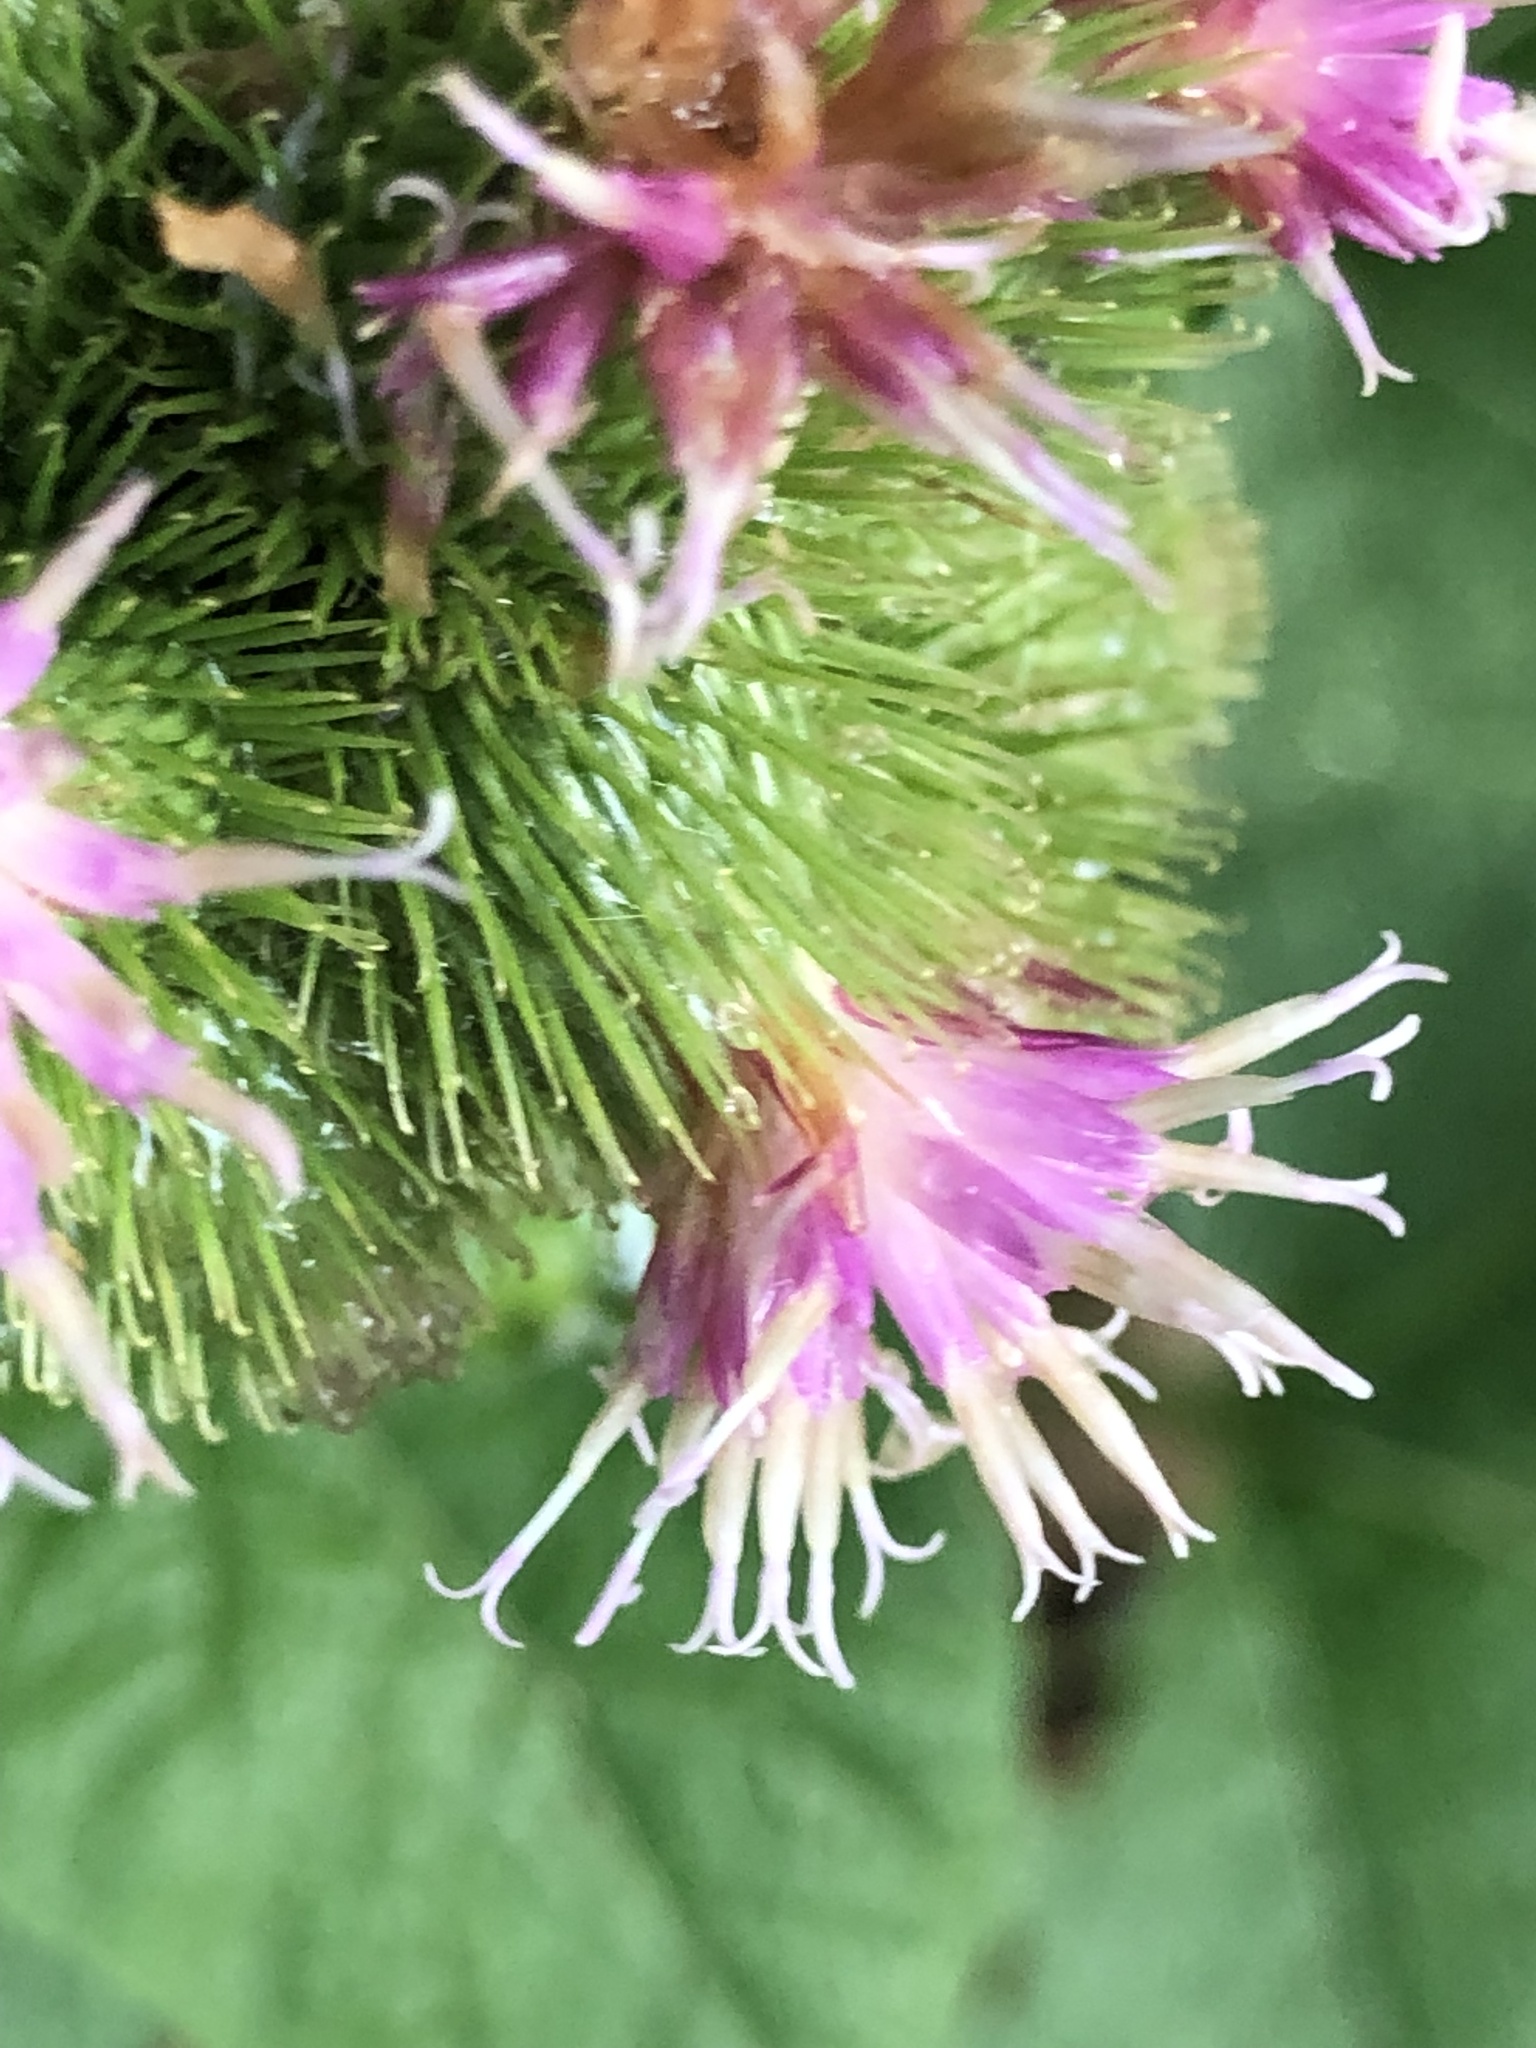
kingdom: Plantae
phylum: Tracheophyta
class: Magnoliopsida
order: Asterales
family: Asteraceae
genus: Arctium
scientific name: Arctium minus
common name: Lesser burdock
